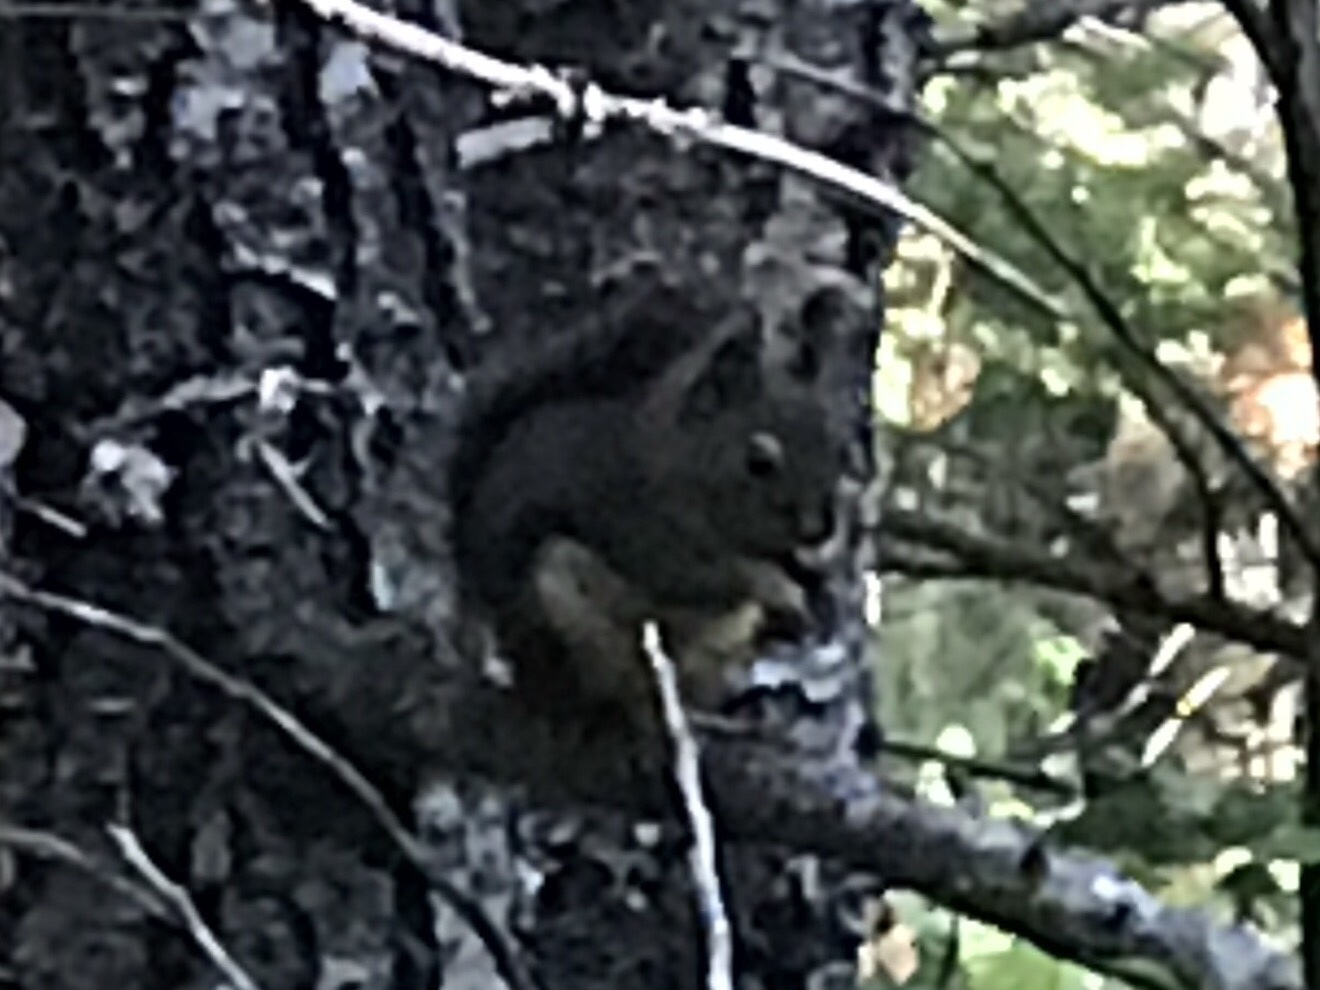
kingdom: Animalia
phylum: Chordata
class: Mammalia
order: Rodentia
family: Sciuridae
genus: Tamiasciurus
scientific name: Tamiasciurus douglasii
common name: Douglas's squirrel
